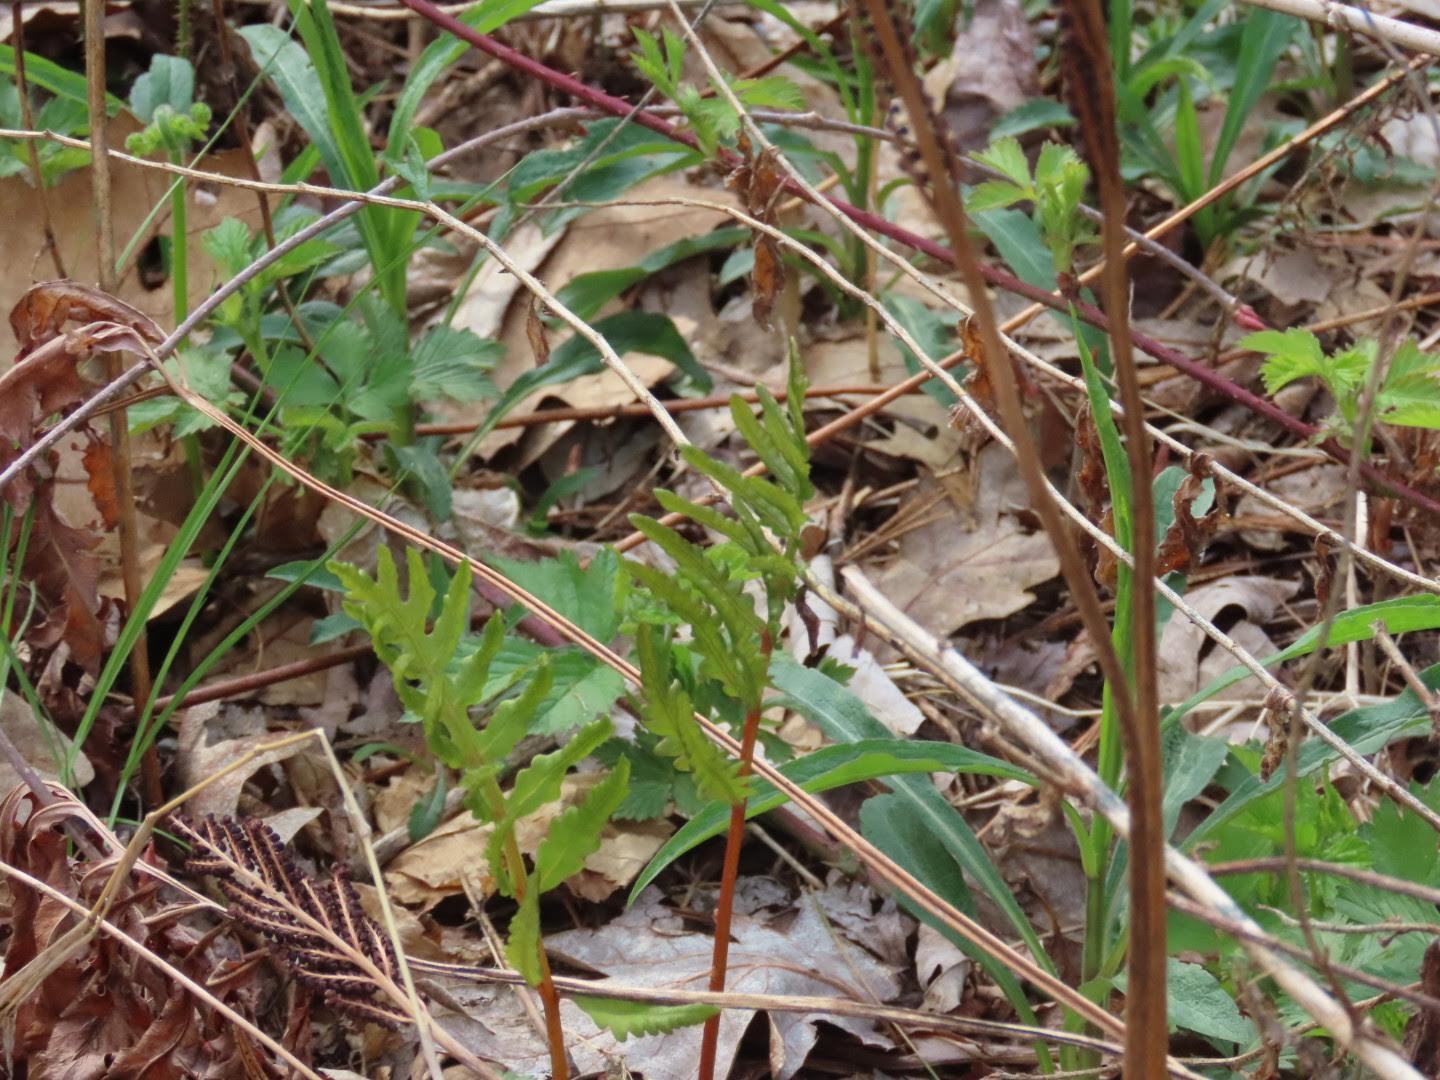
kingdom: Plantae
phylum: Tracheophyta
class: Polypodiopsida
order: Polypodiales
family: Onocleaceae
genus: Onoclea
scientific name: Onoclea sensibilis
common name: Sensitive fern
